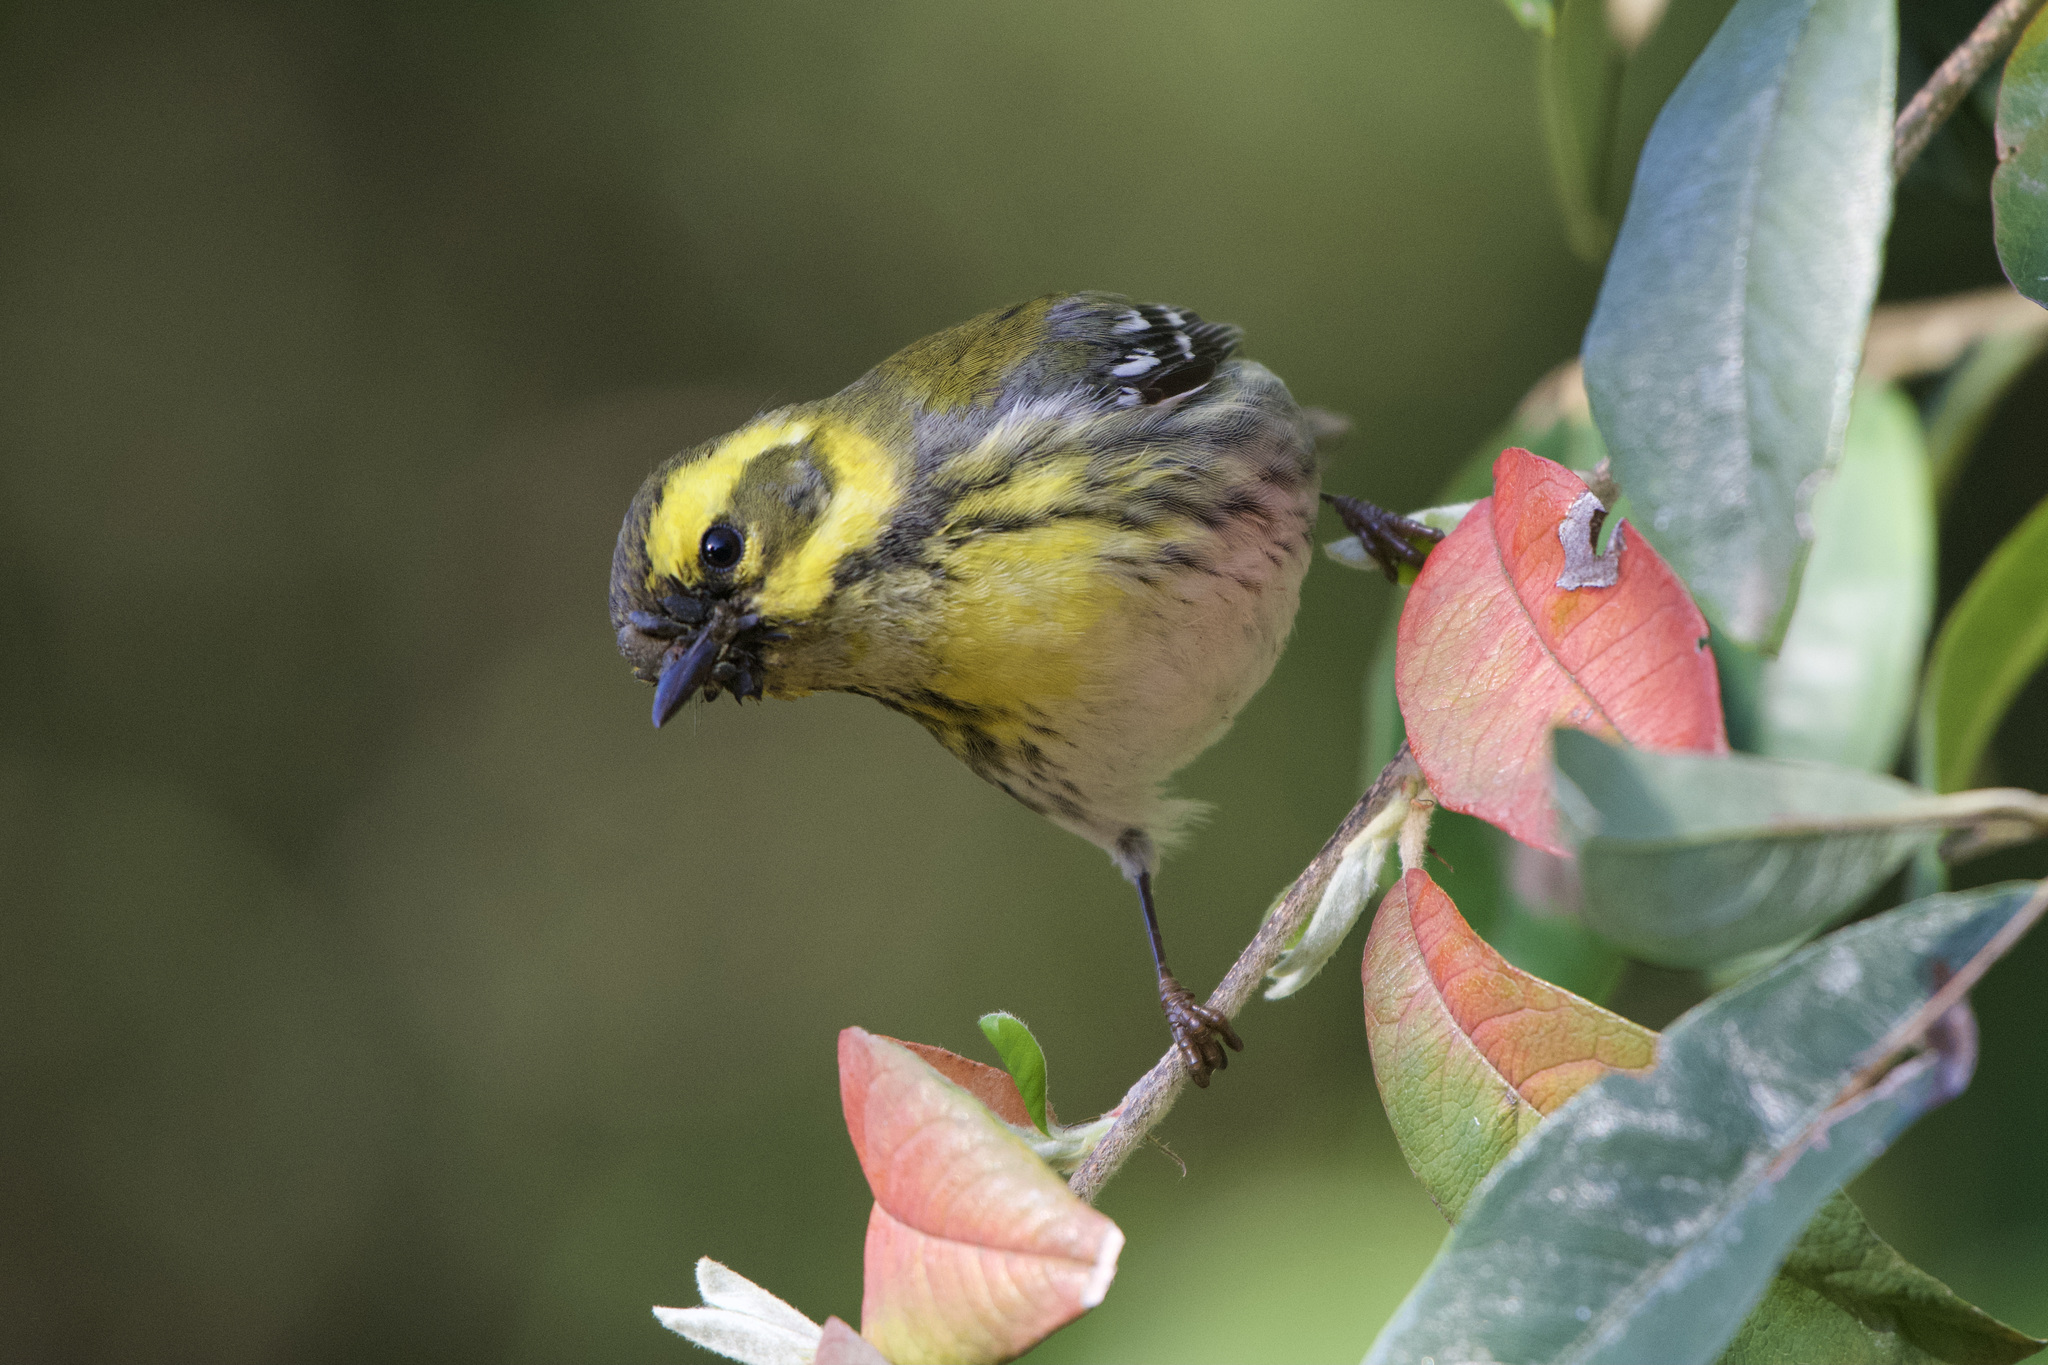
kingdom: Animalia
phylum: Chordata
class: Aves
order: Passeriformes
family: Parulidae
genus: Setophaga
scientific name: Setophaga townsendi
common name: Townsend's warbler
